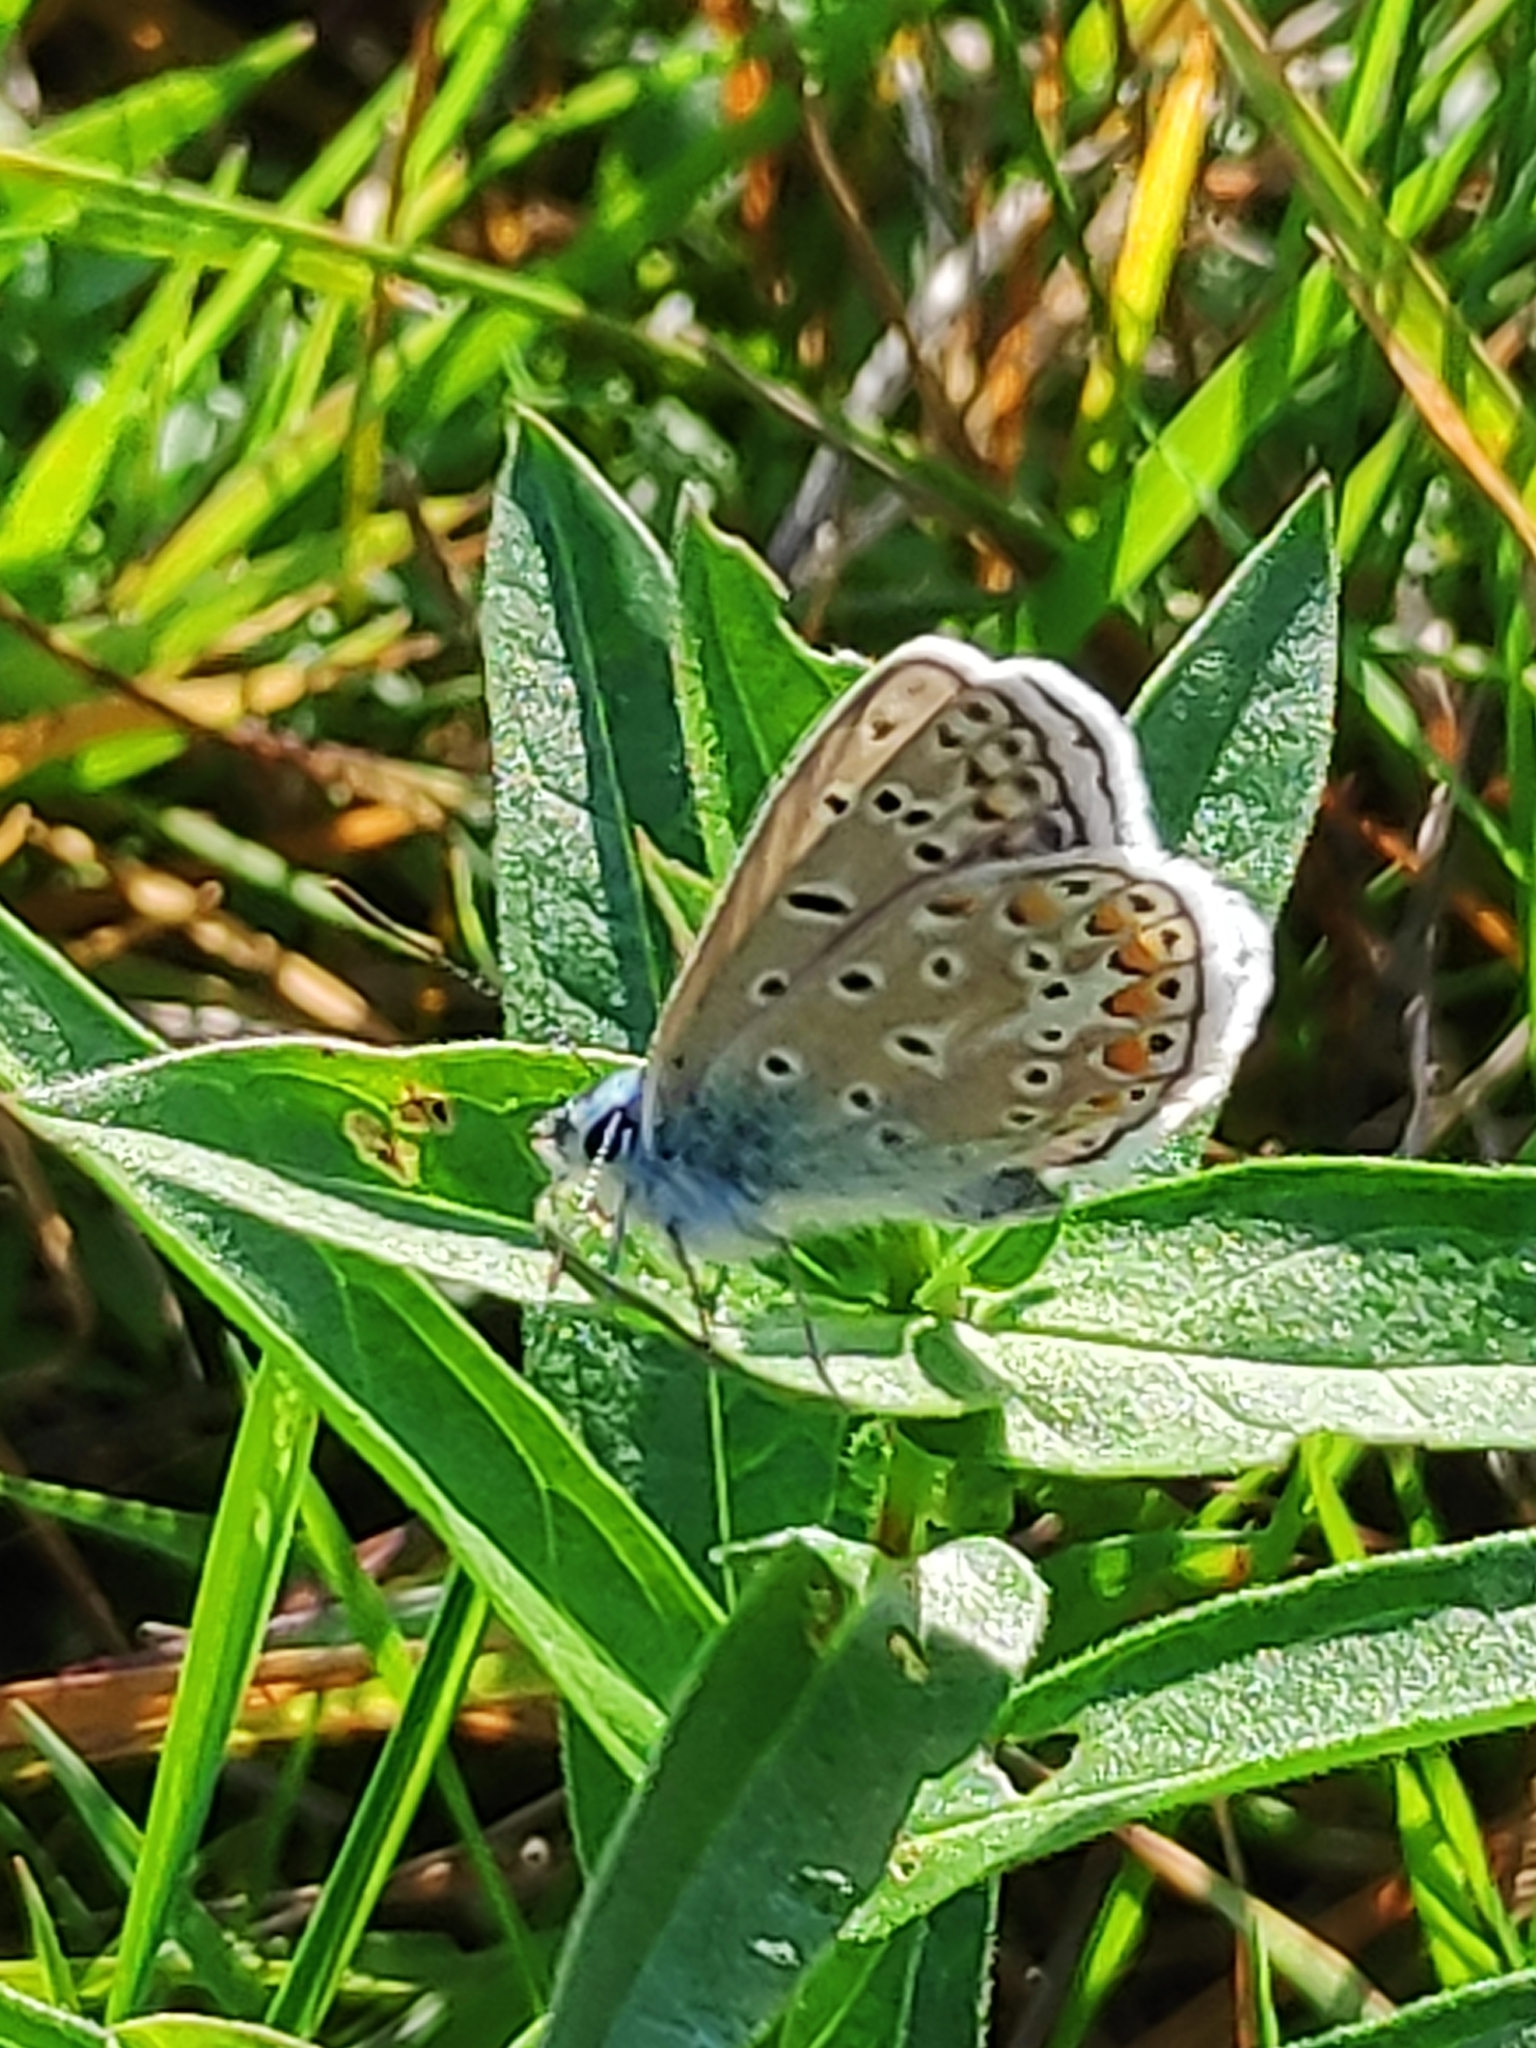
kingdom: Animalia
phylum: Arthropoda
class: Insecta
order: Lepidoptera
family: Lycaenidae
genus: Polyommatus
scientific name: Polyommatus icarus
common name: Common blue
